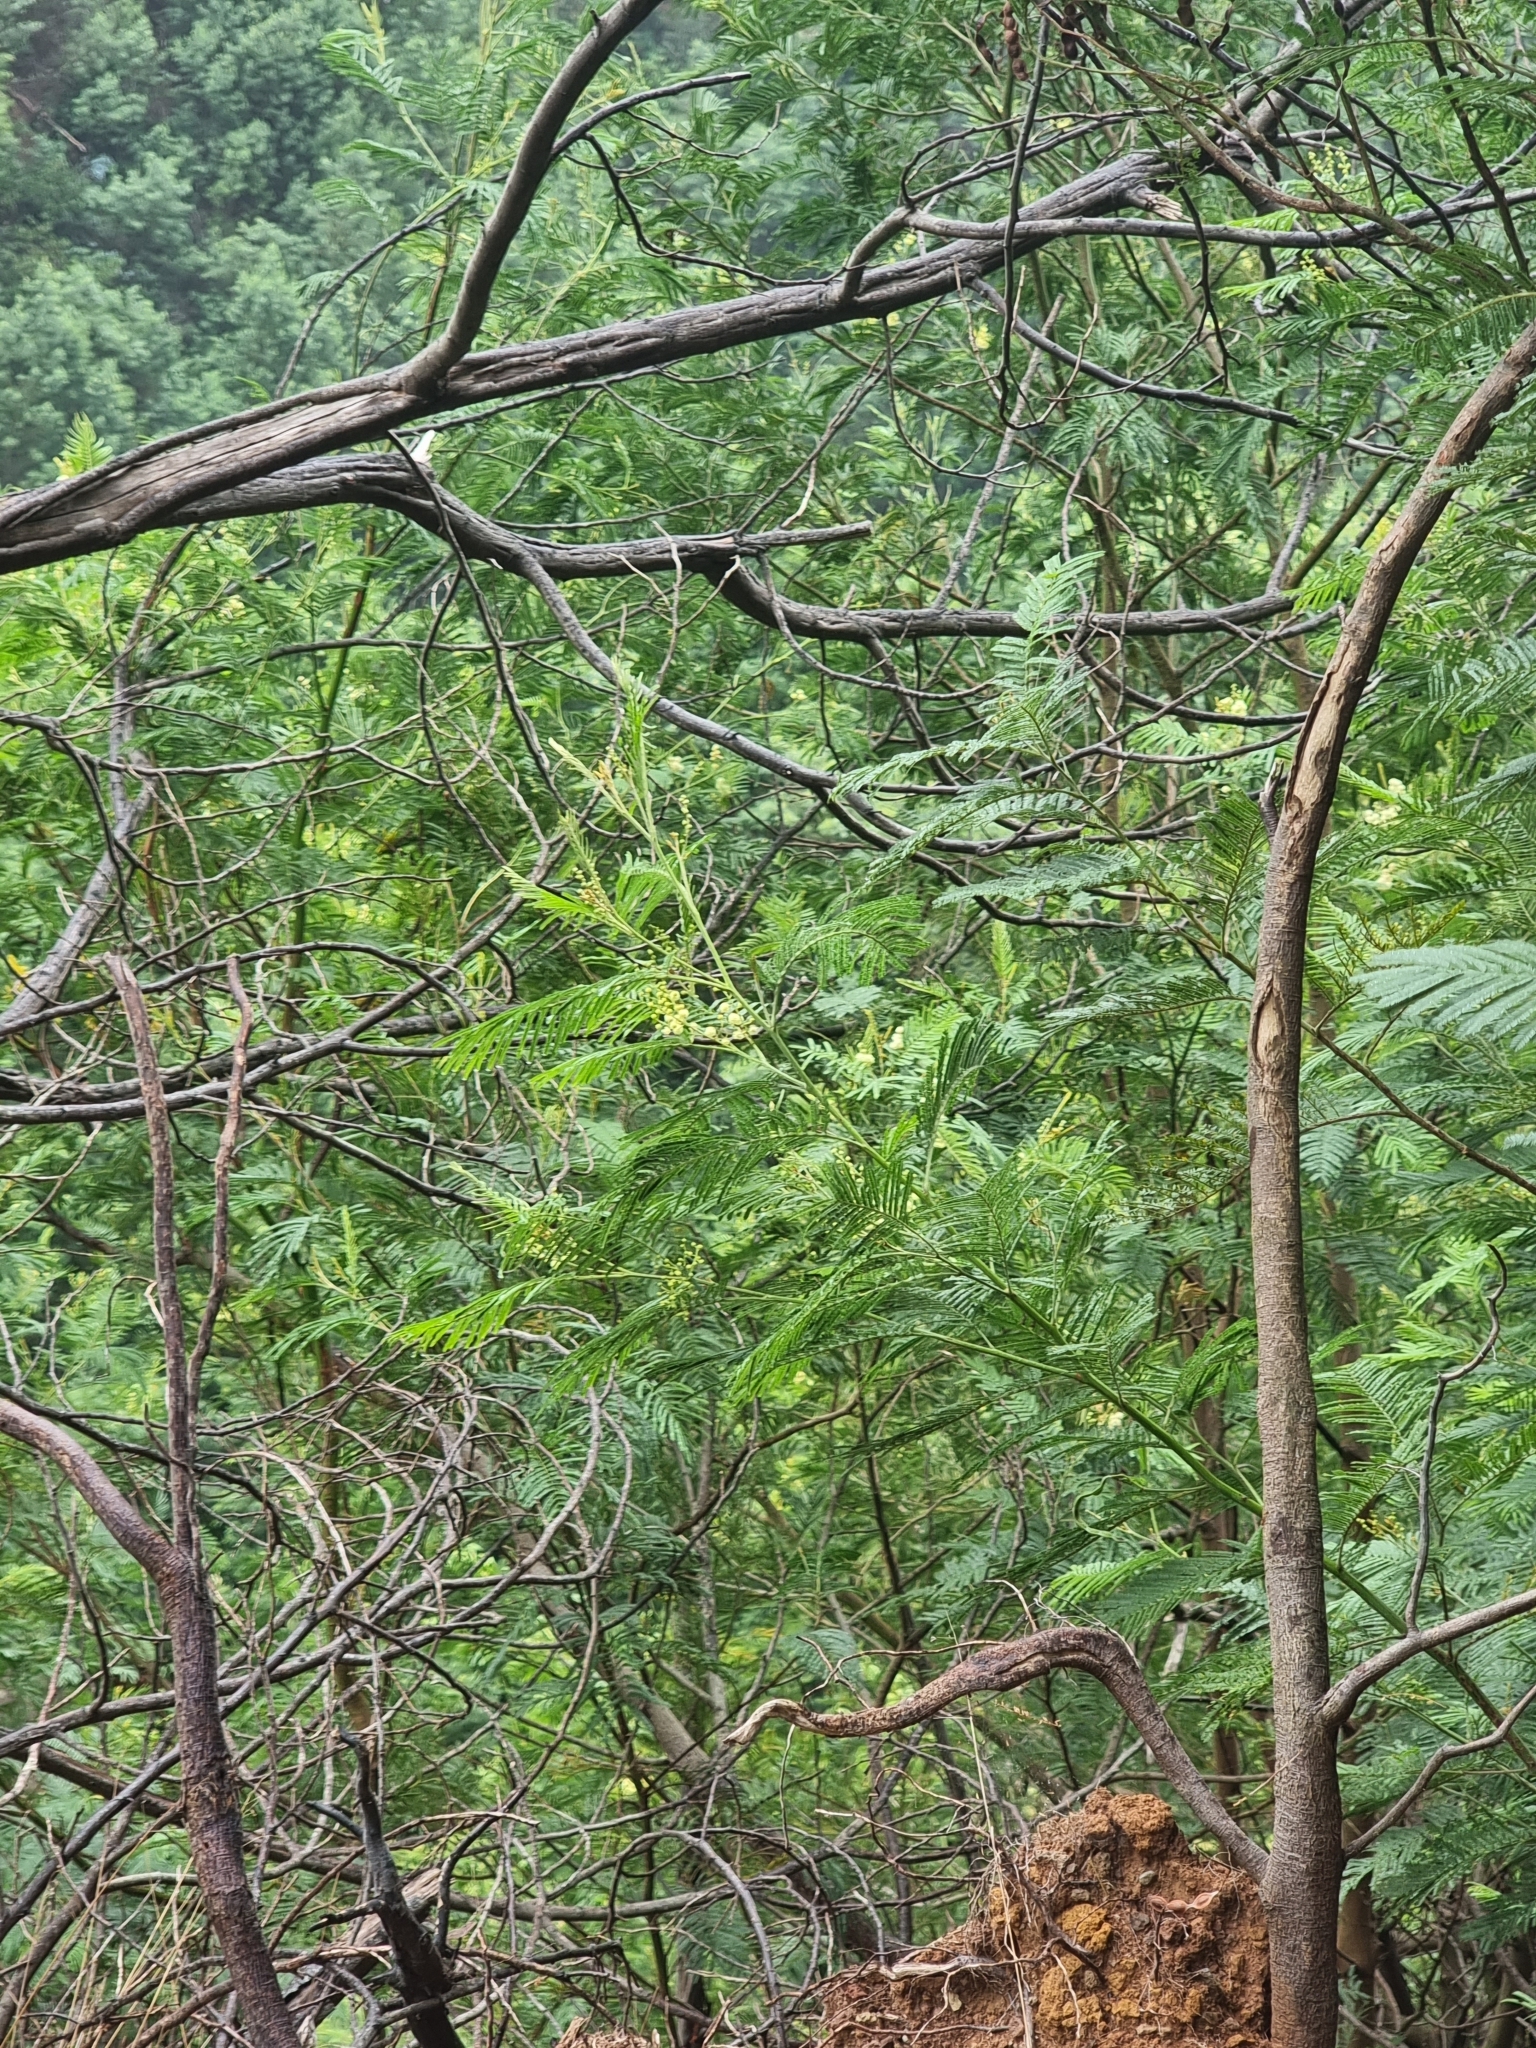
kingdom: Plantae
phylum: Tracheophyta
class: Magnoliopsida
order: Fabales
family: Fabaceae
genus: Acacia
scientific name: Acacia mearnsii
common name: Black wattle
